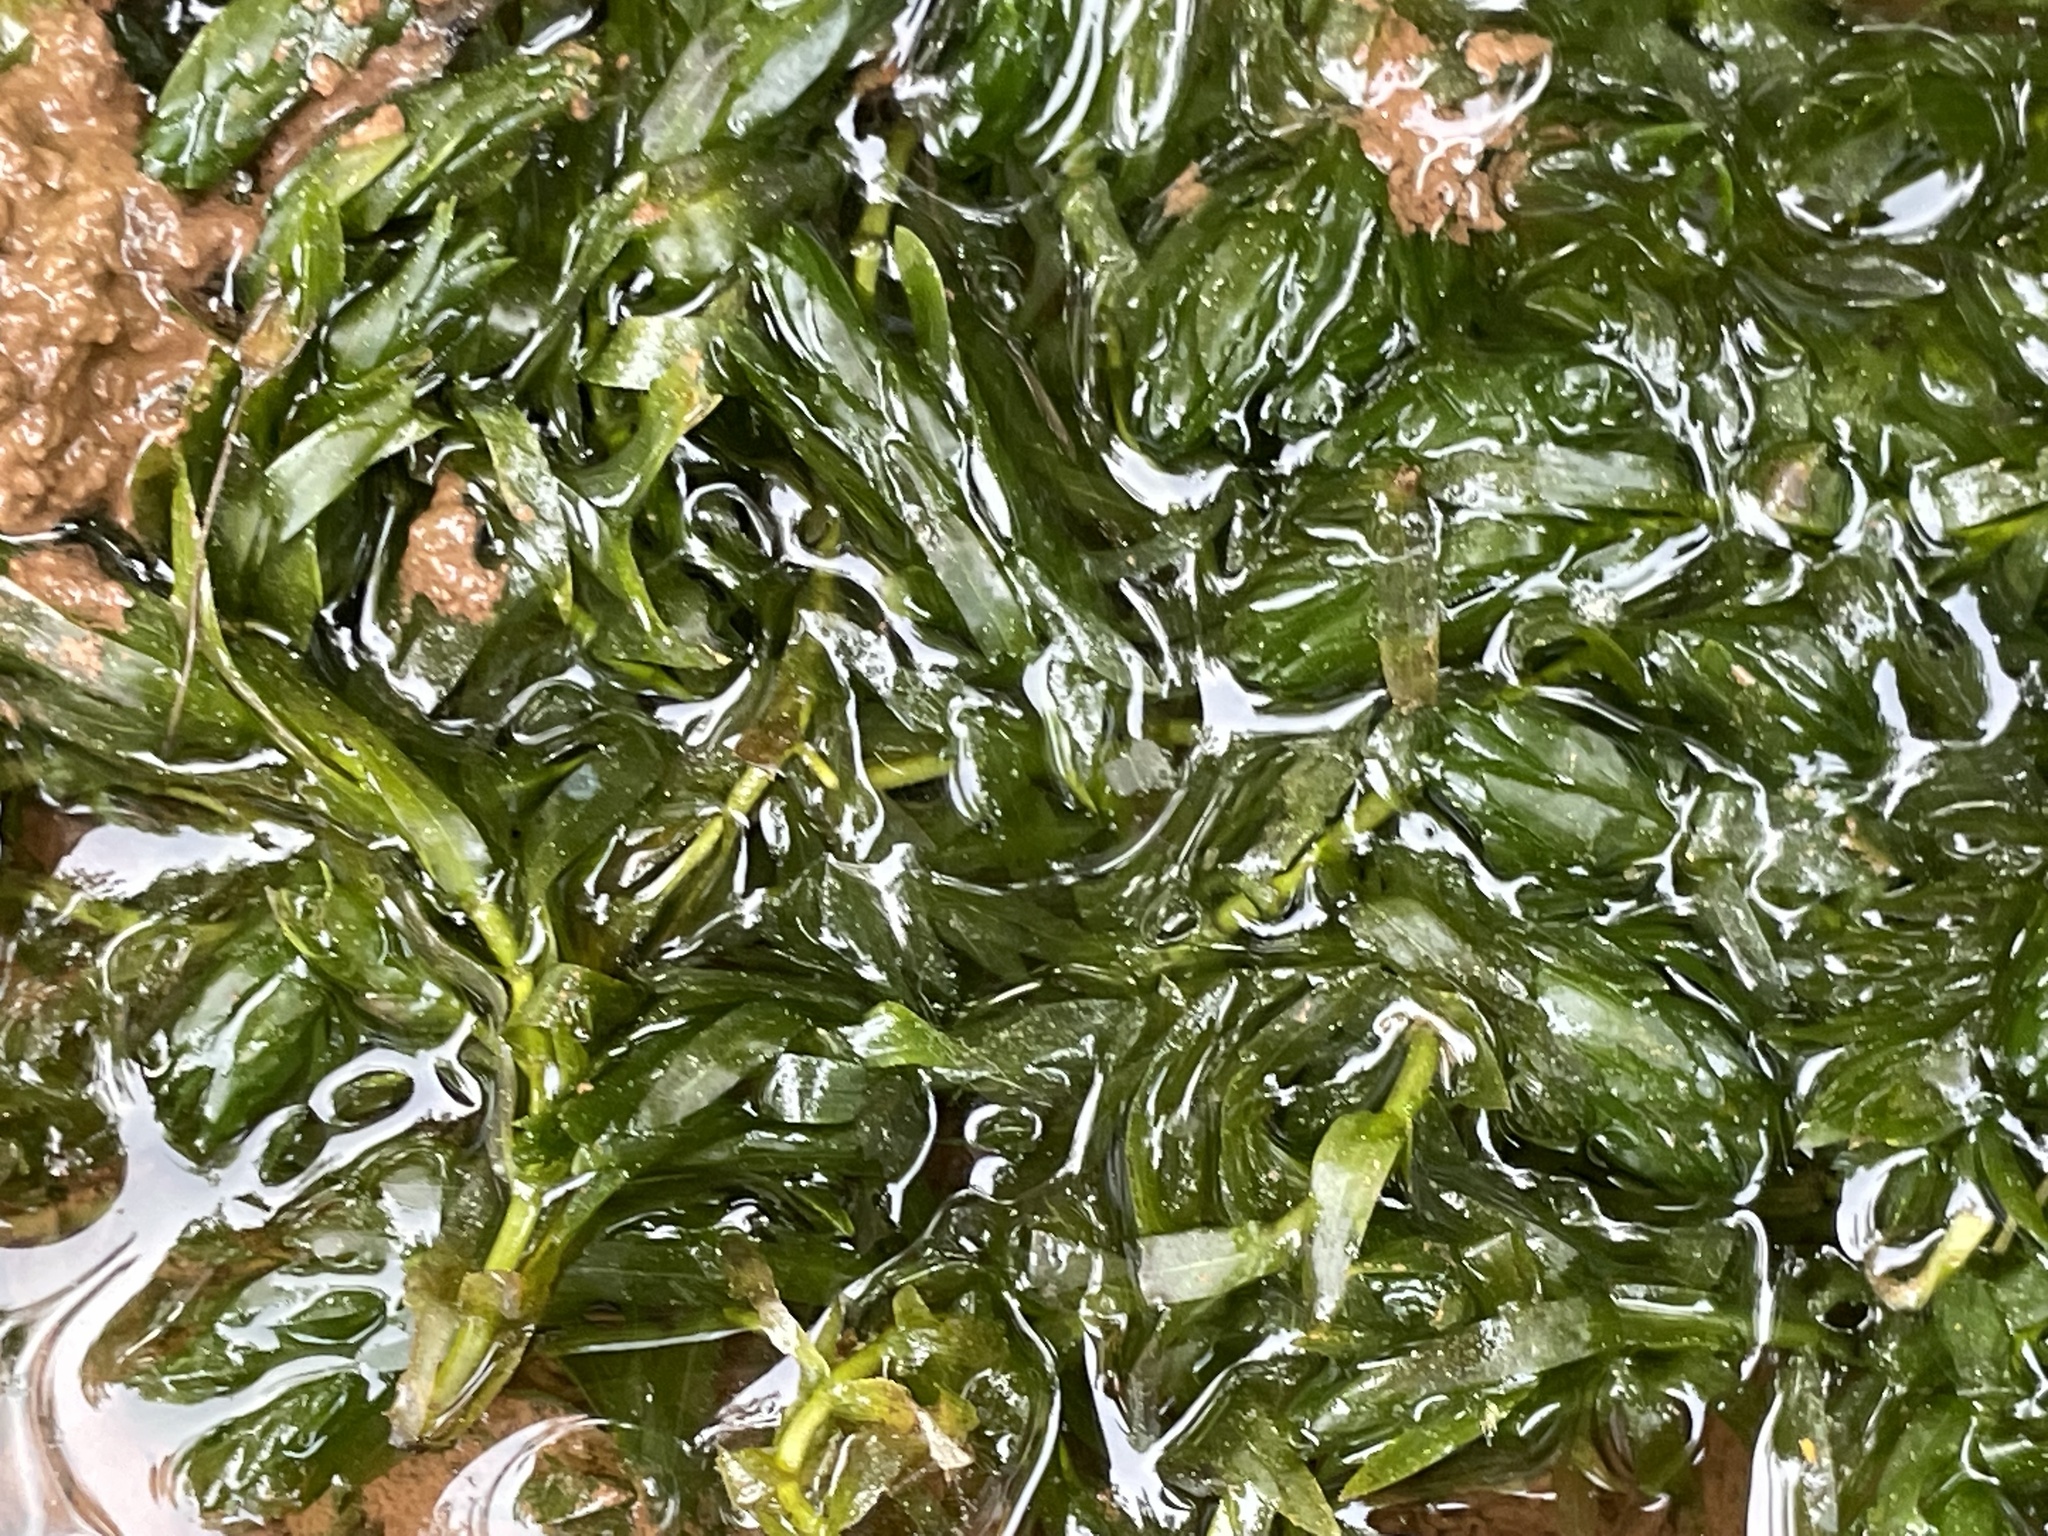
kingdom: Plantae
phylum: Tracheophyta
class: Liliopsida
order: Alismatales
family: Hydrocharitaceae
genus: Elodea
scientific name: Elodea densa
